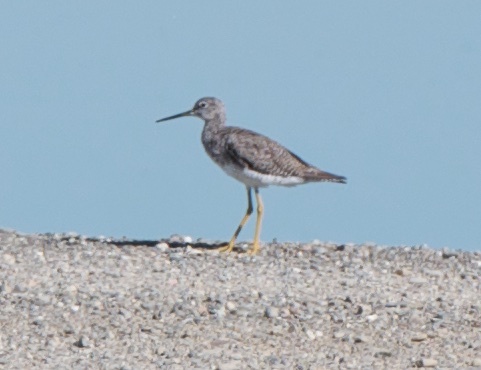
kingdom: Animalia
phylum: Chordata
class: Aves
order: Charadriiformes
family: Scolopacidae
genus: Tringa
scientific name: Tringa melanoleuca
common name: Greater yellowlegs
